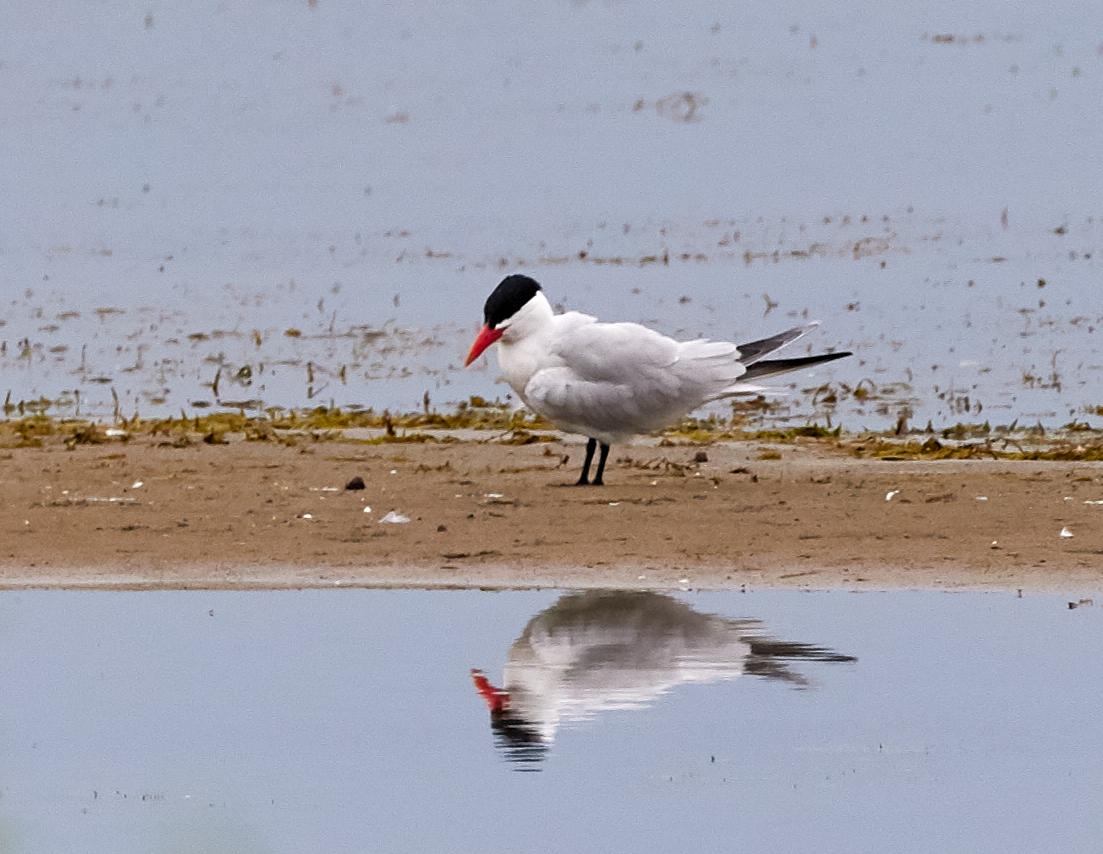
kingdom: Animalia
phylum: Chordata
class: Aves
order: Charadriiformes
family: Laridae
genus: Hydroprogne
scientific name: Hydroprogne caspia
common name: Caspian tern
